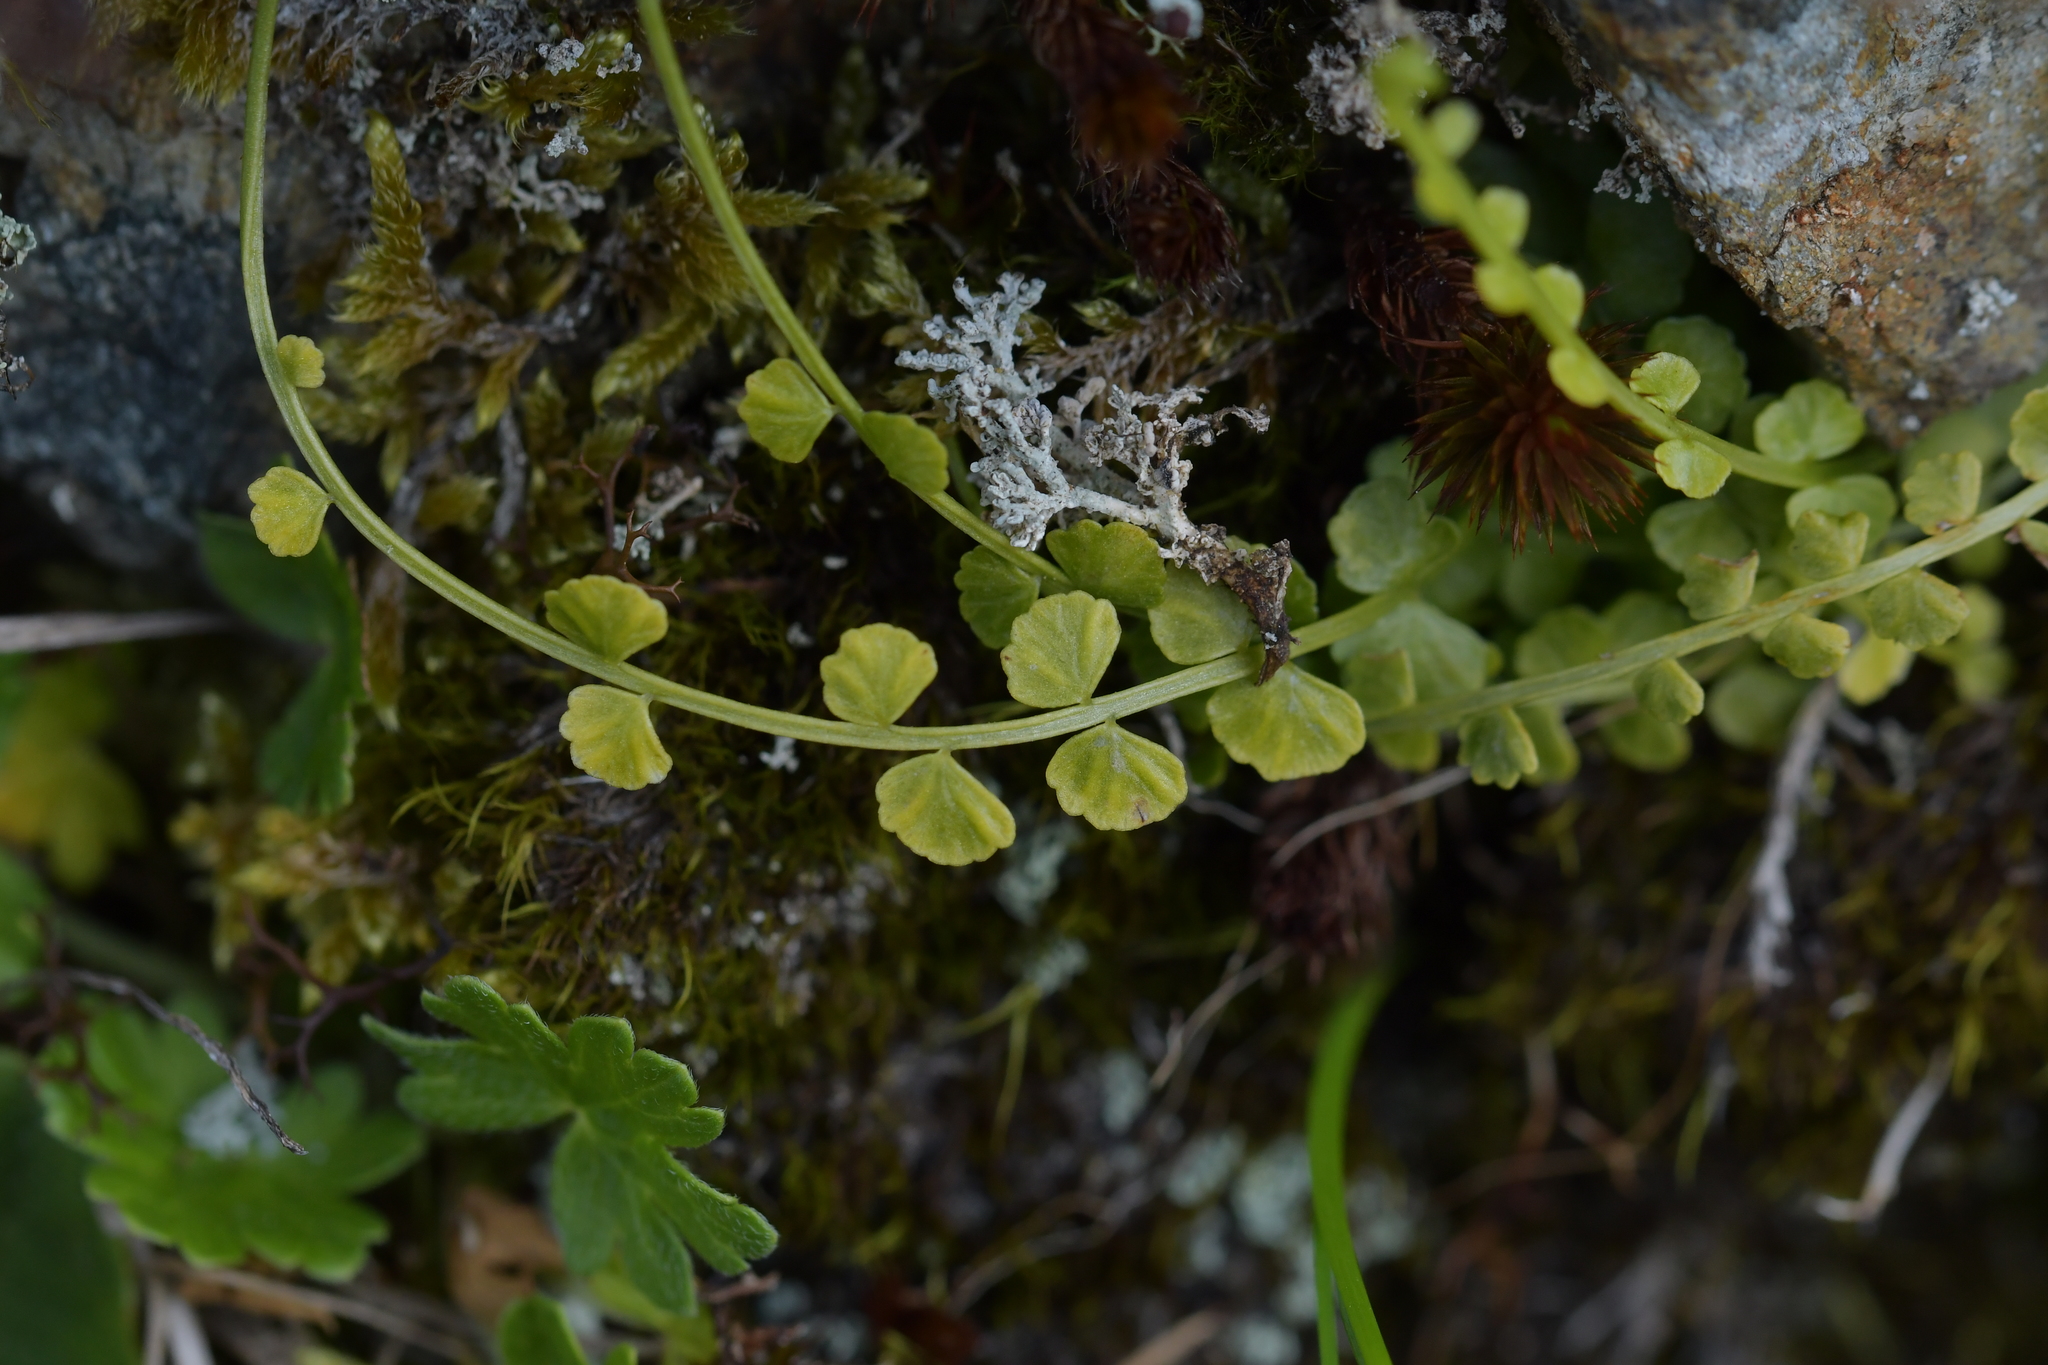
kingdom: Plantae
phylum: Tracheophyta
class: Polypodiopsida
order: Polypodiales
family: Aspleniaceae
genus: Asplenium
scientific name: Asplenium flabellifolium
